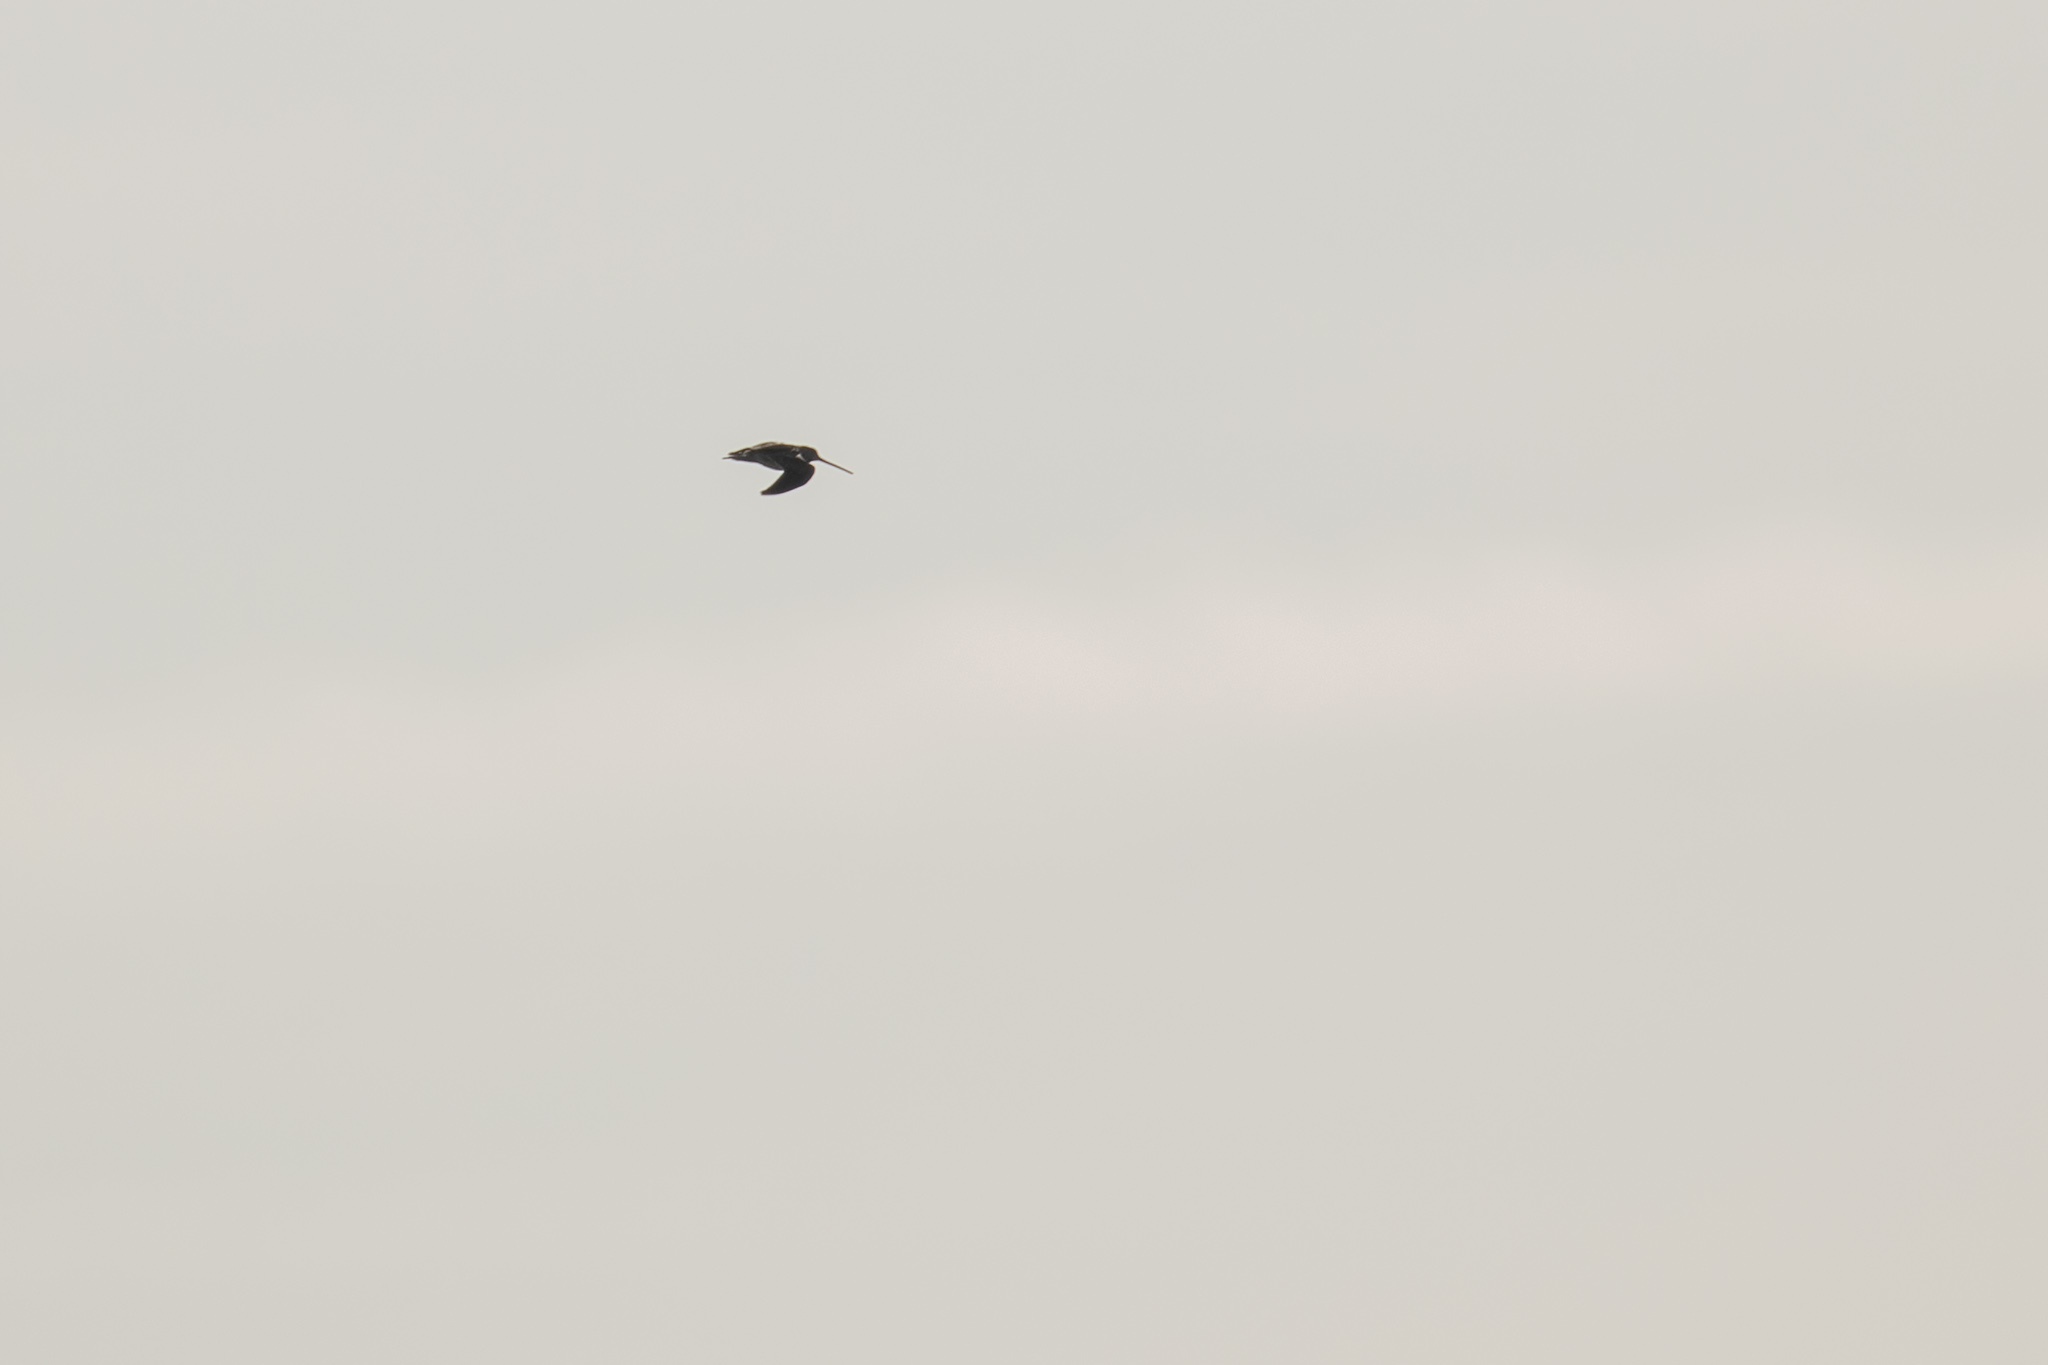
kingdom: Animalia
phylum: Chordata
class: Aves
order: Charadriiformes
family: Scolopacidae
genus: Gallinago
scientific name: Gallinago gallinago
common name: Common snipe
